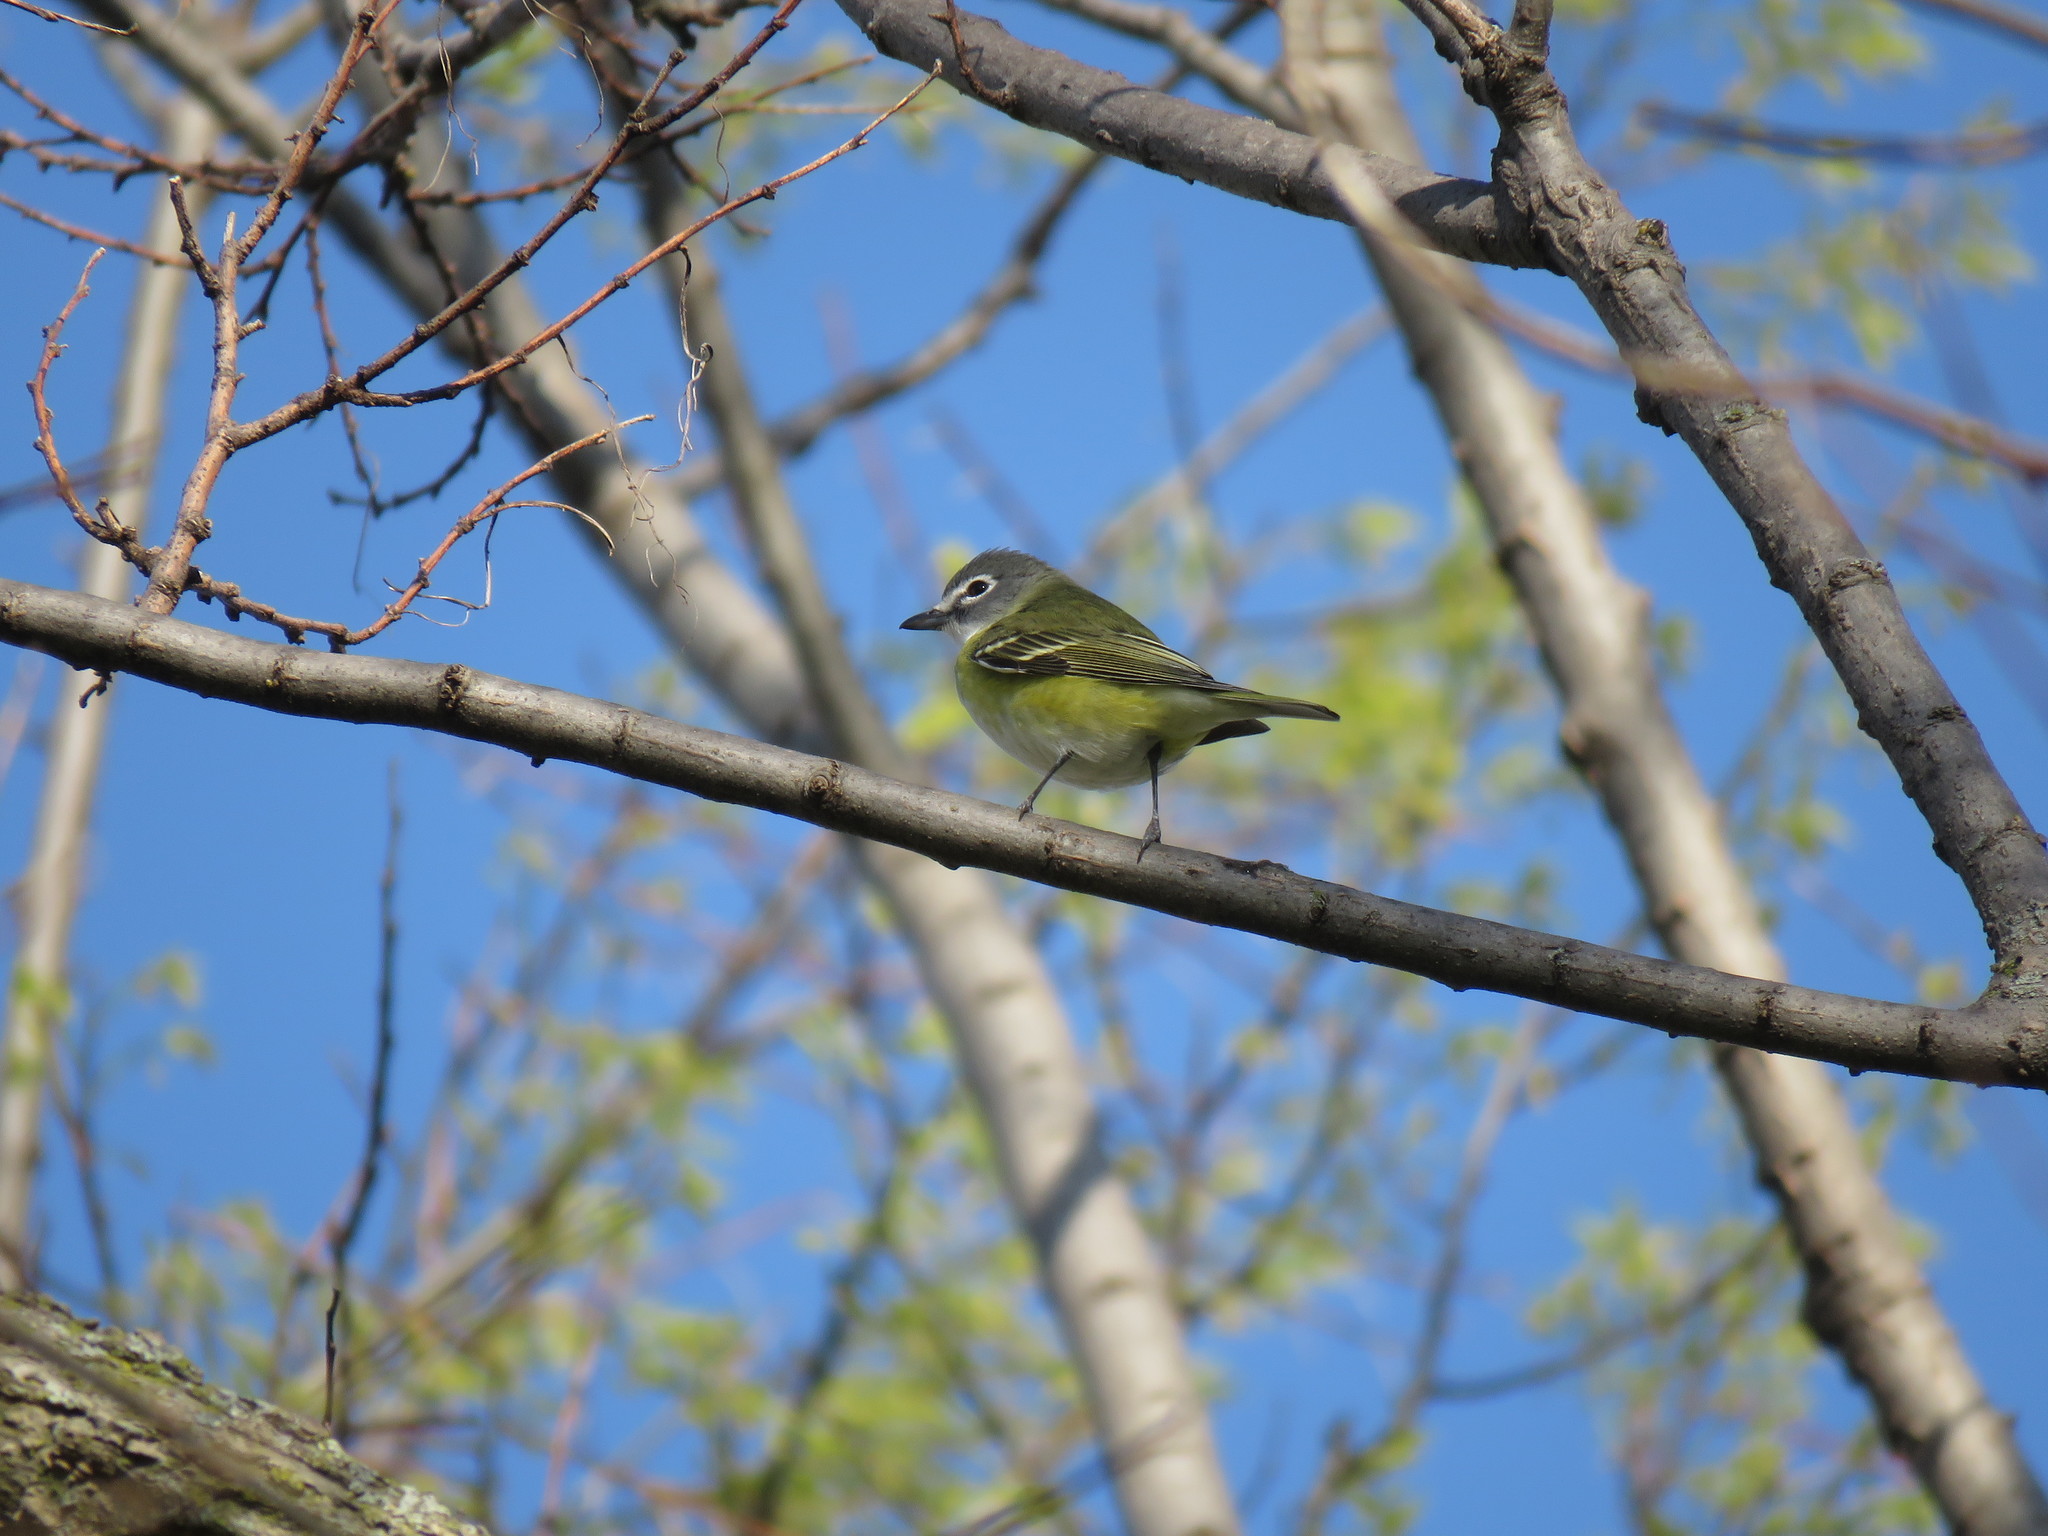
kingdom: Animalia
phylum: Chordata
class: Aves
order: Passeriformes
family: Vireonidae
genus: Vireo
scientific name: Vireo solitarius
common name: Blue-headed vireo
